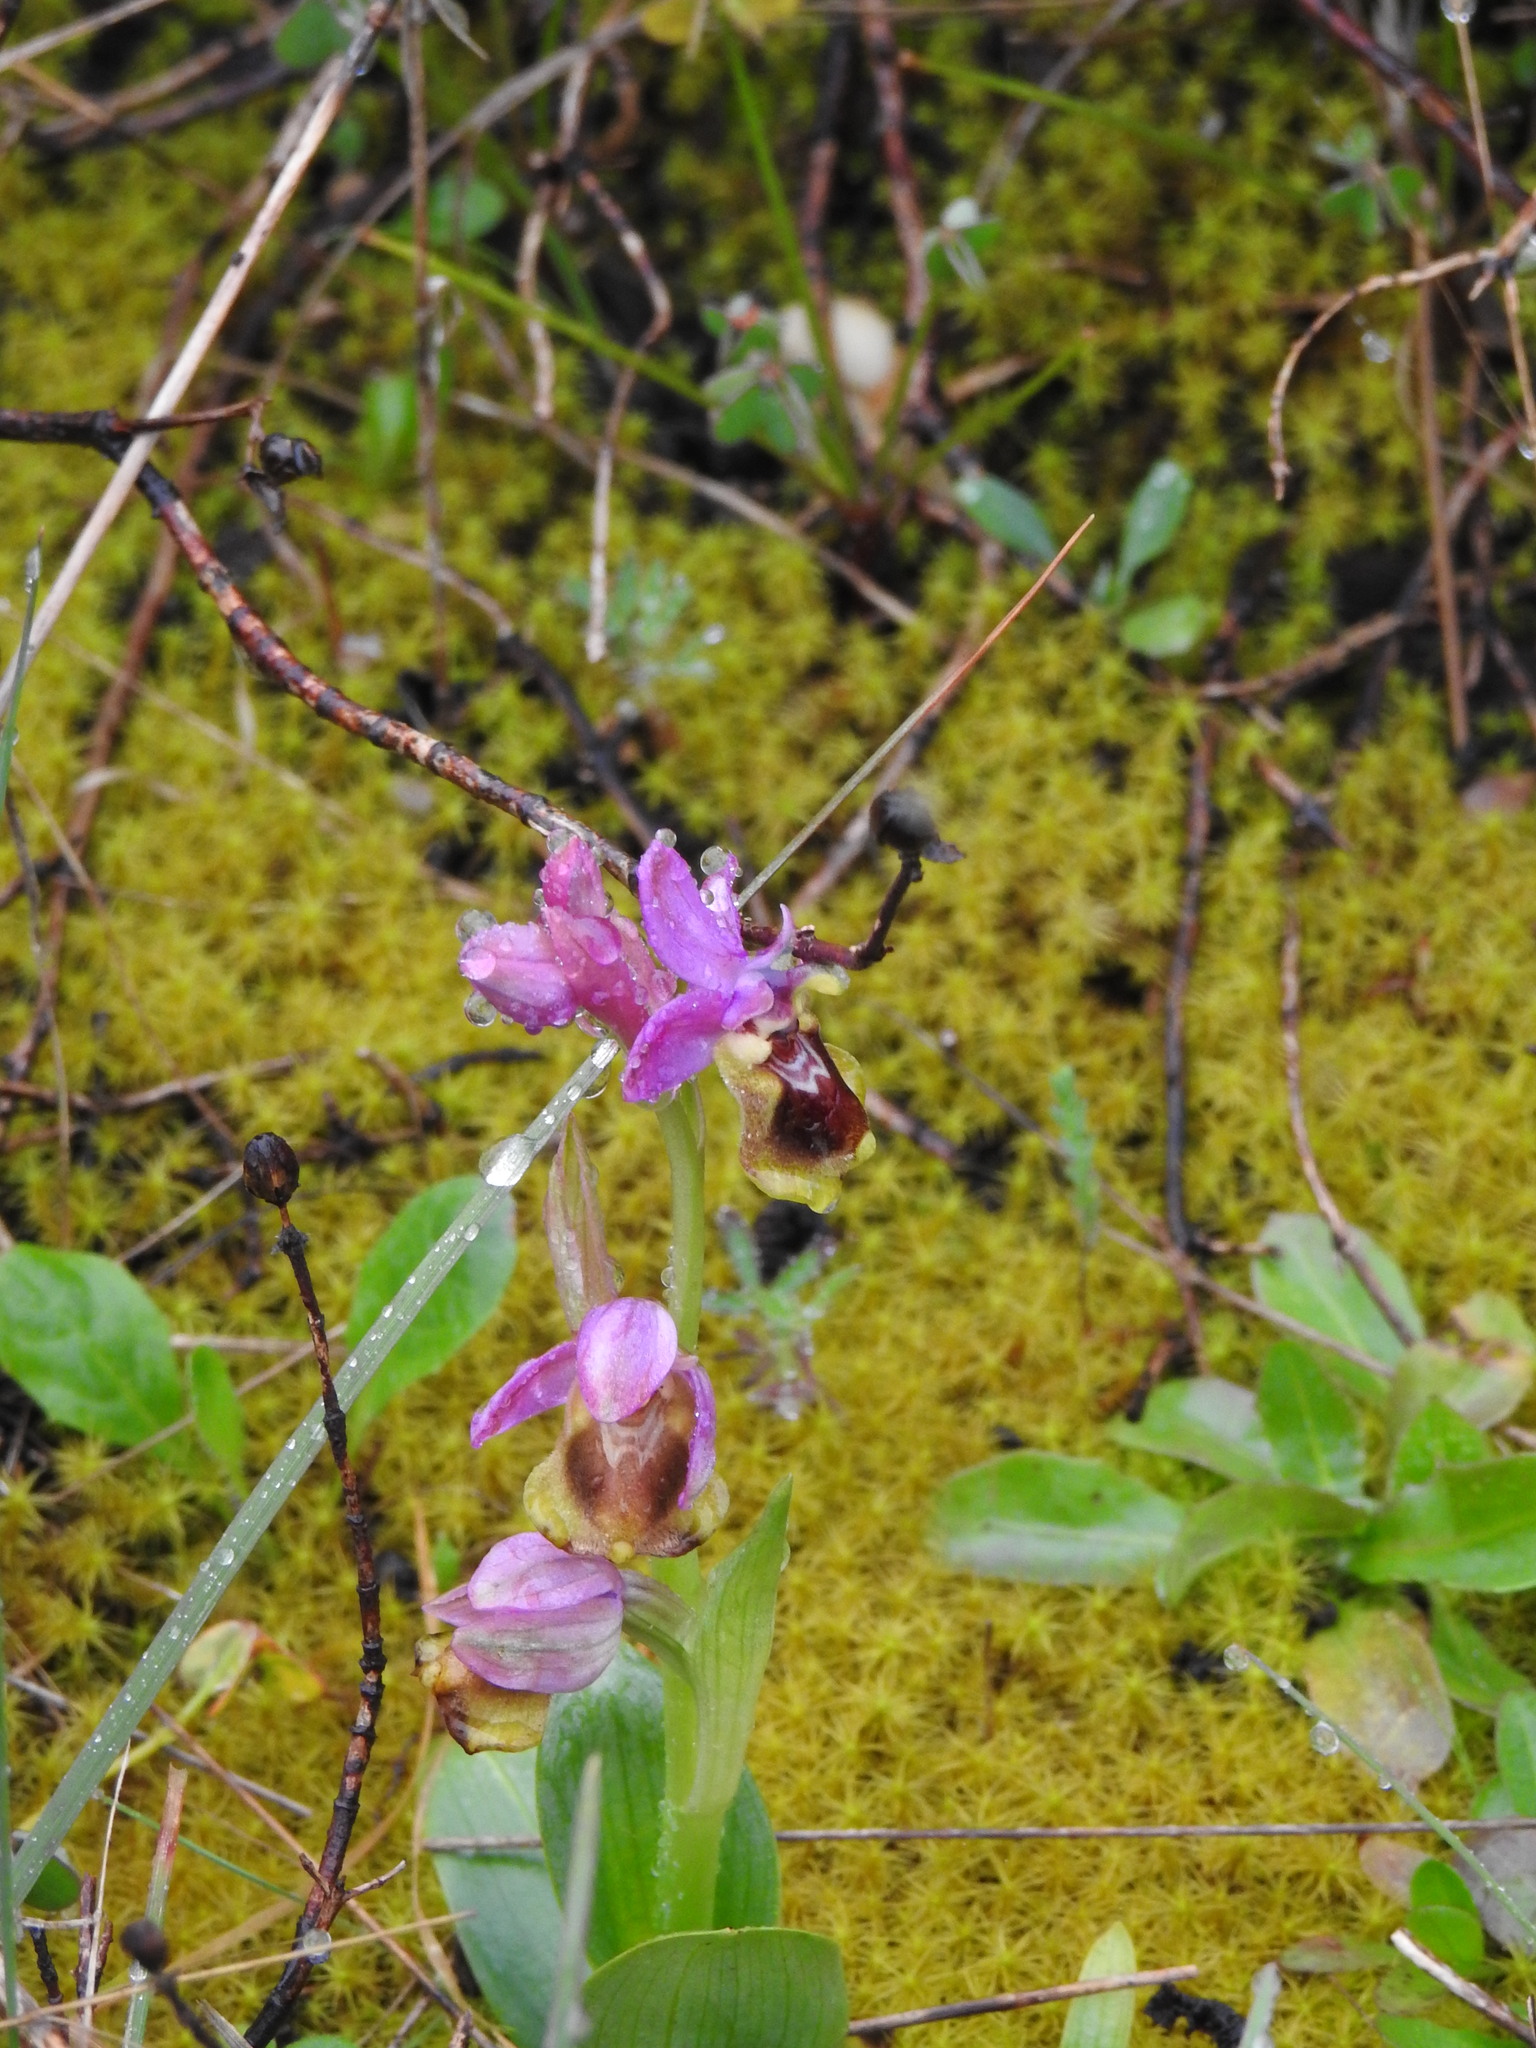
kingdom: Plantae
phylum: Tracheophyta
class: Liliopsida
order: Asparagales
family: Orchidaceae
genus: Ophrys
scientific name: Ophrys tenthredinifera
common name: Sawfly orchid
